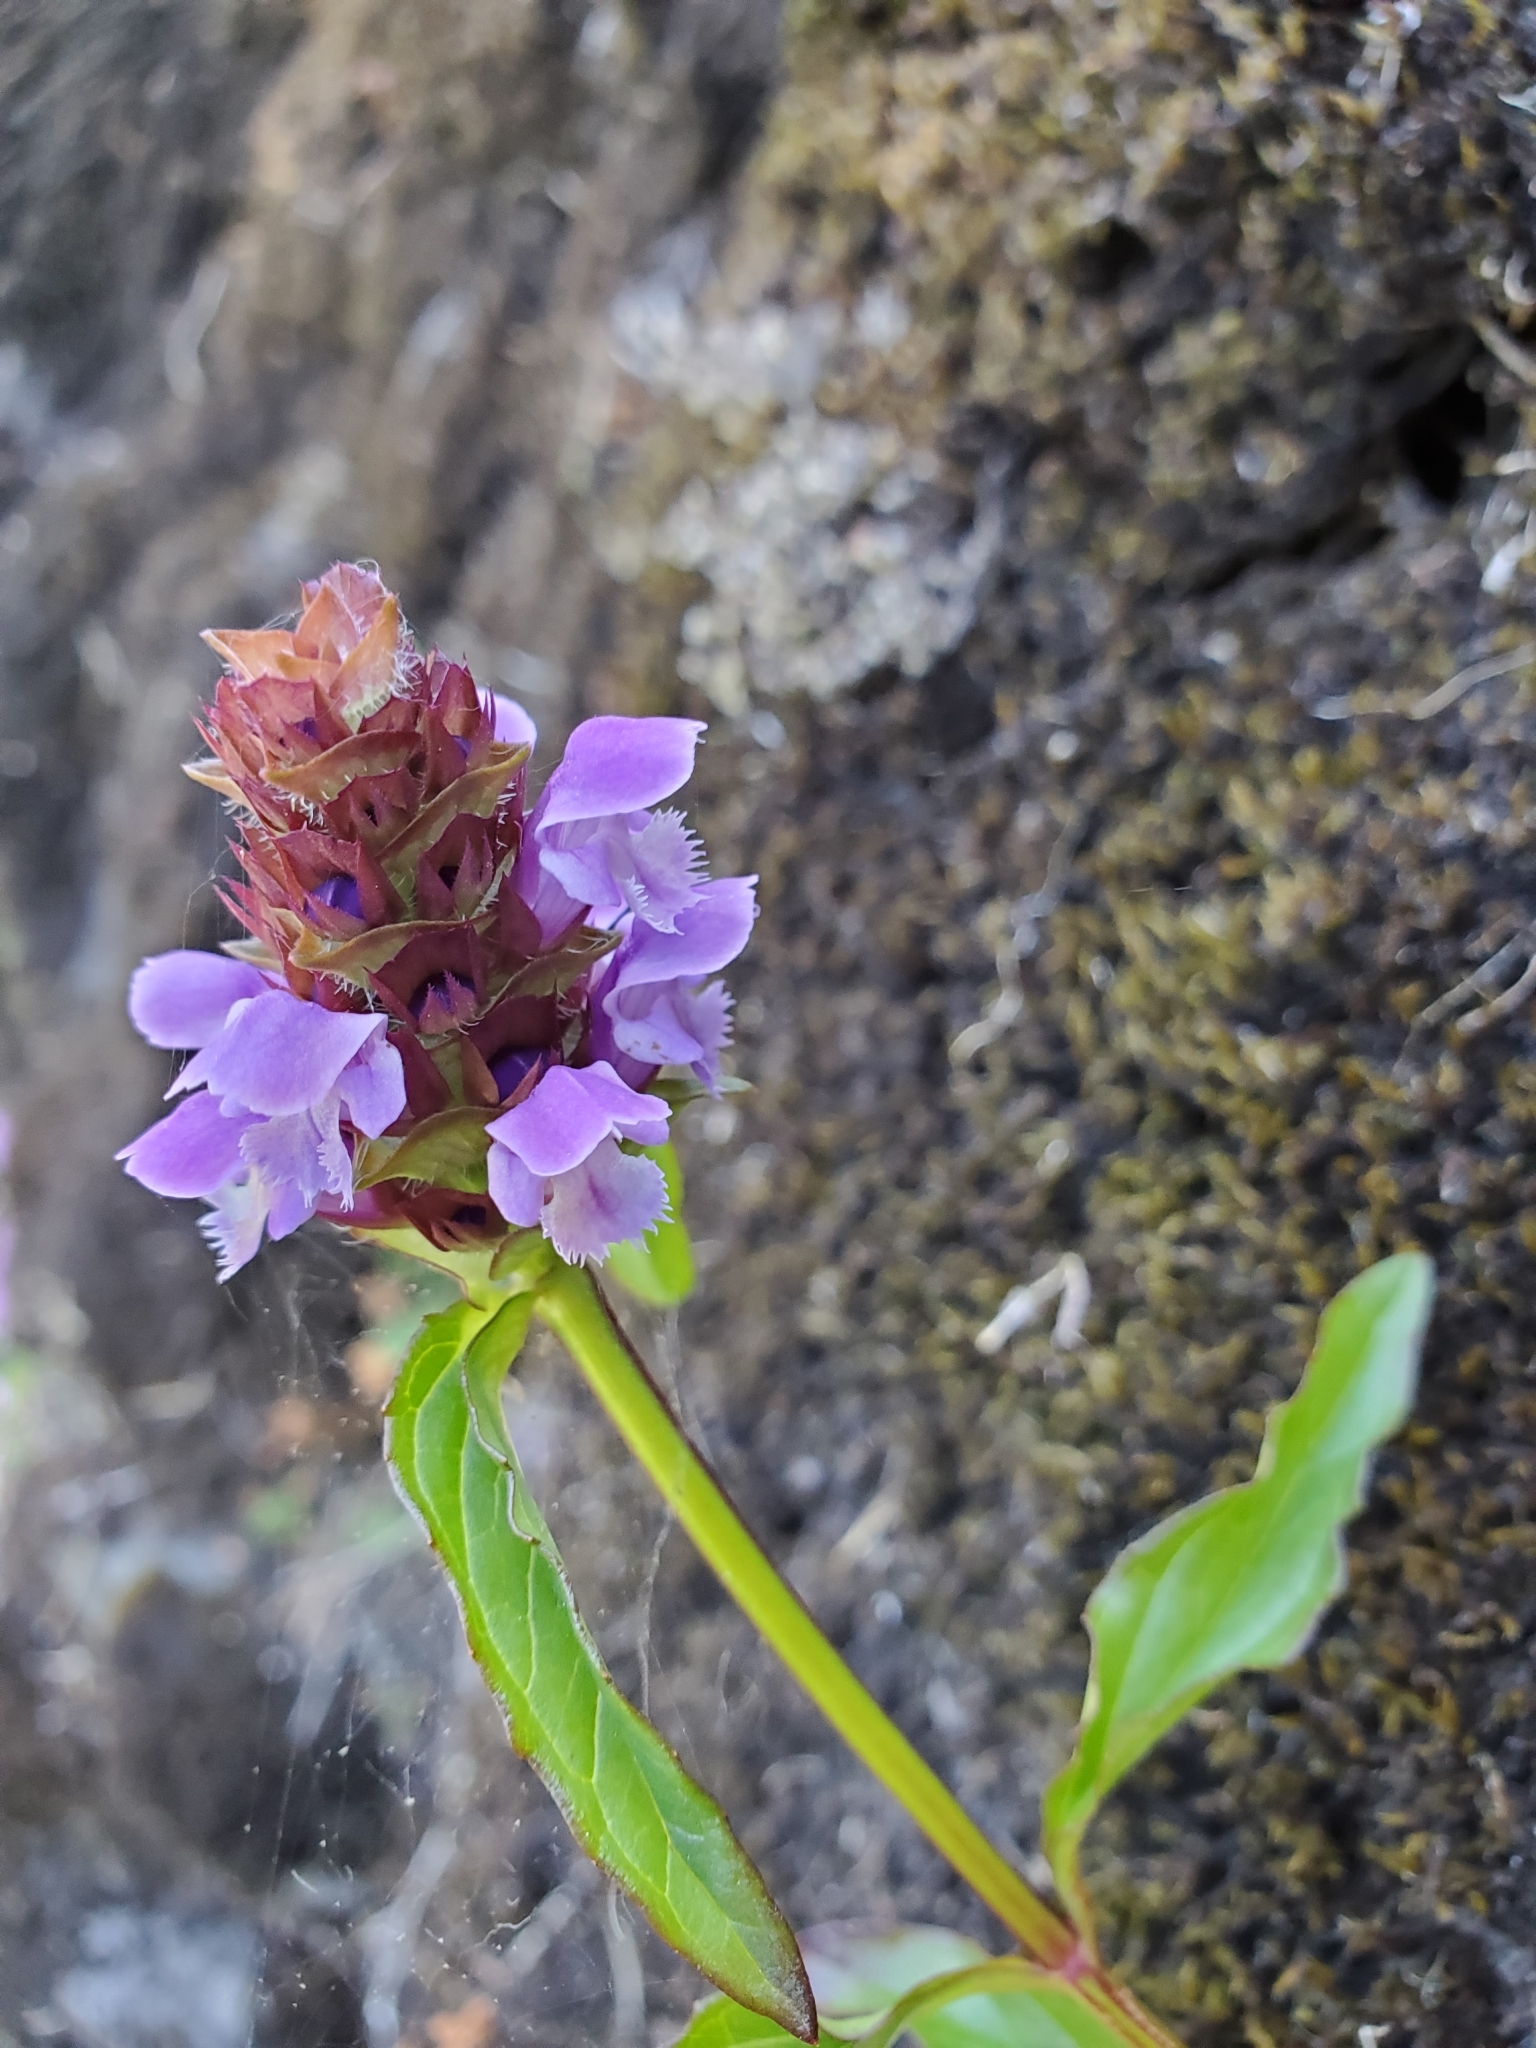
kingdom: Plantae
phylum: Tracheophyta
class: Magnoliopsida
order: Lamiales
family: Lamiaceae
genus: Prunella
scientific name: Prunella vulgaris
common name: Heal-all
